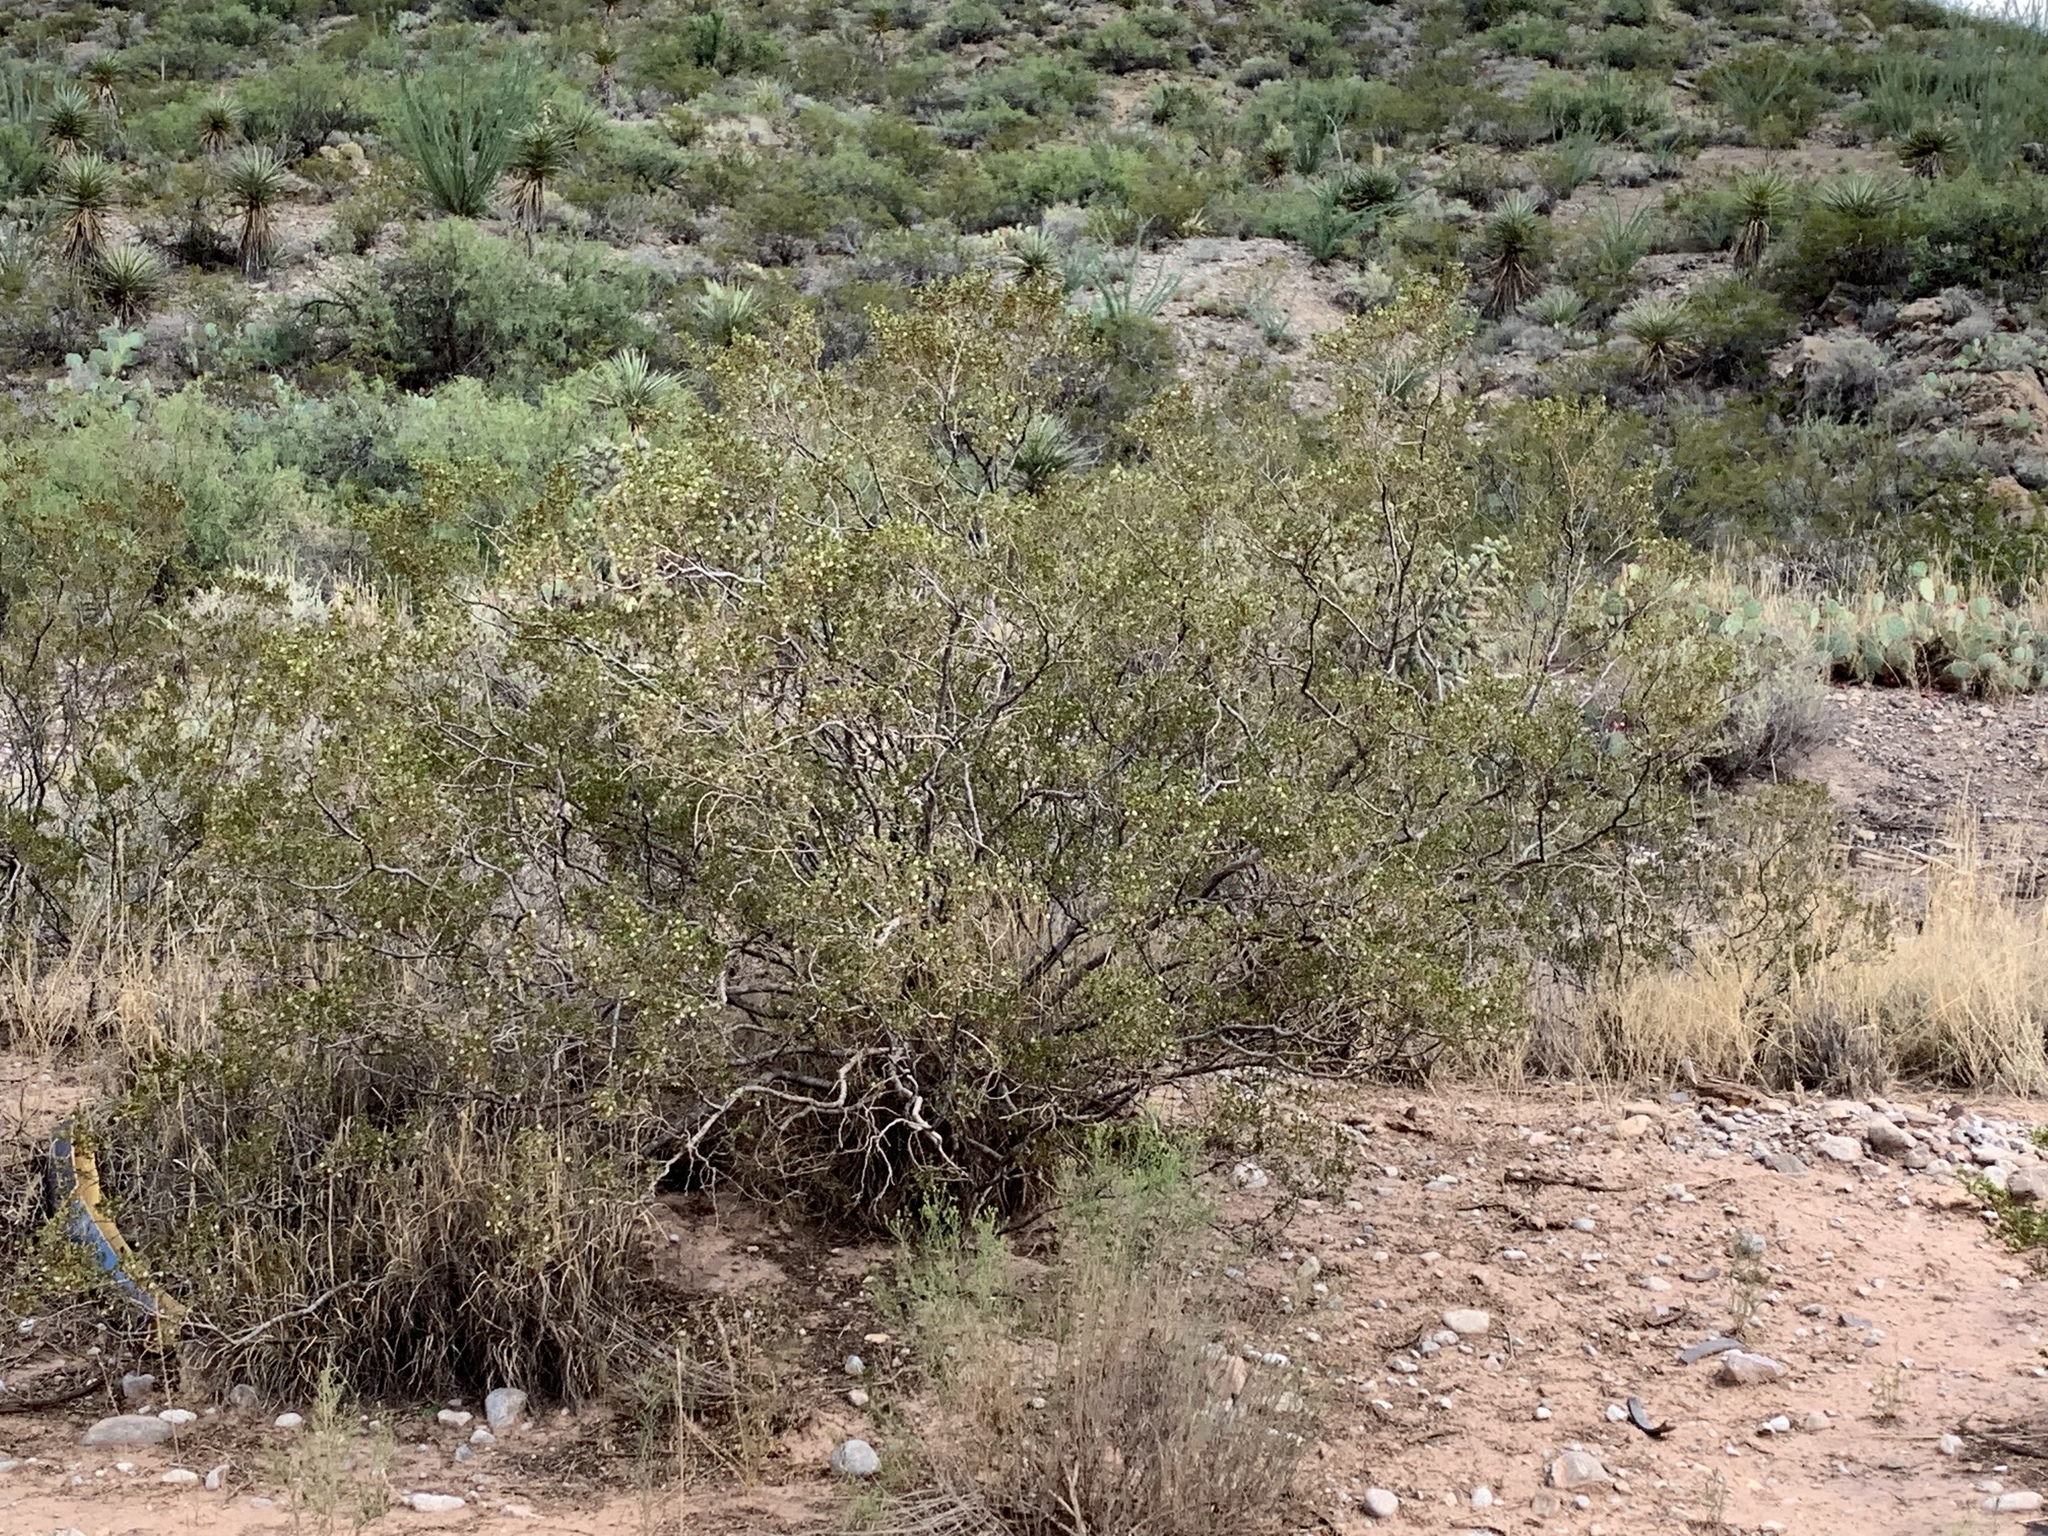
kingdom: Plantae
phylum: Tracheophyta
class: Magnoliopsida
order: Zygophyllales
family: Zygophyllaceae
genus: Larrea
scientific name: Larrea tridentata
